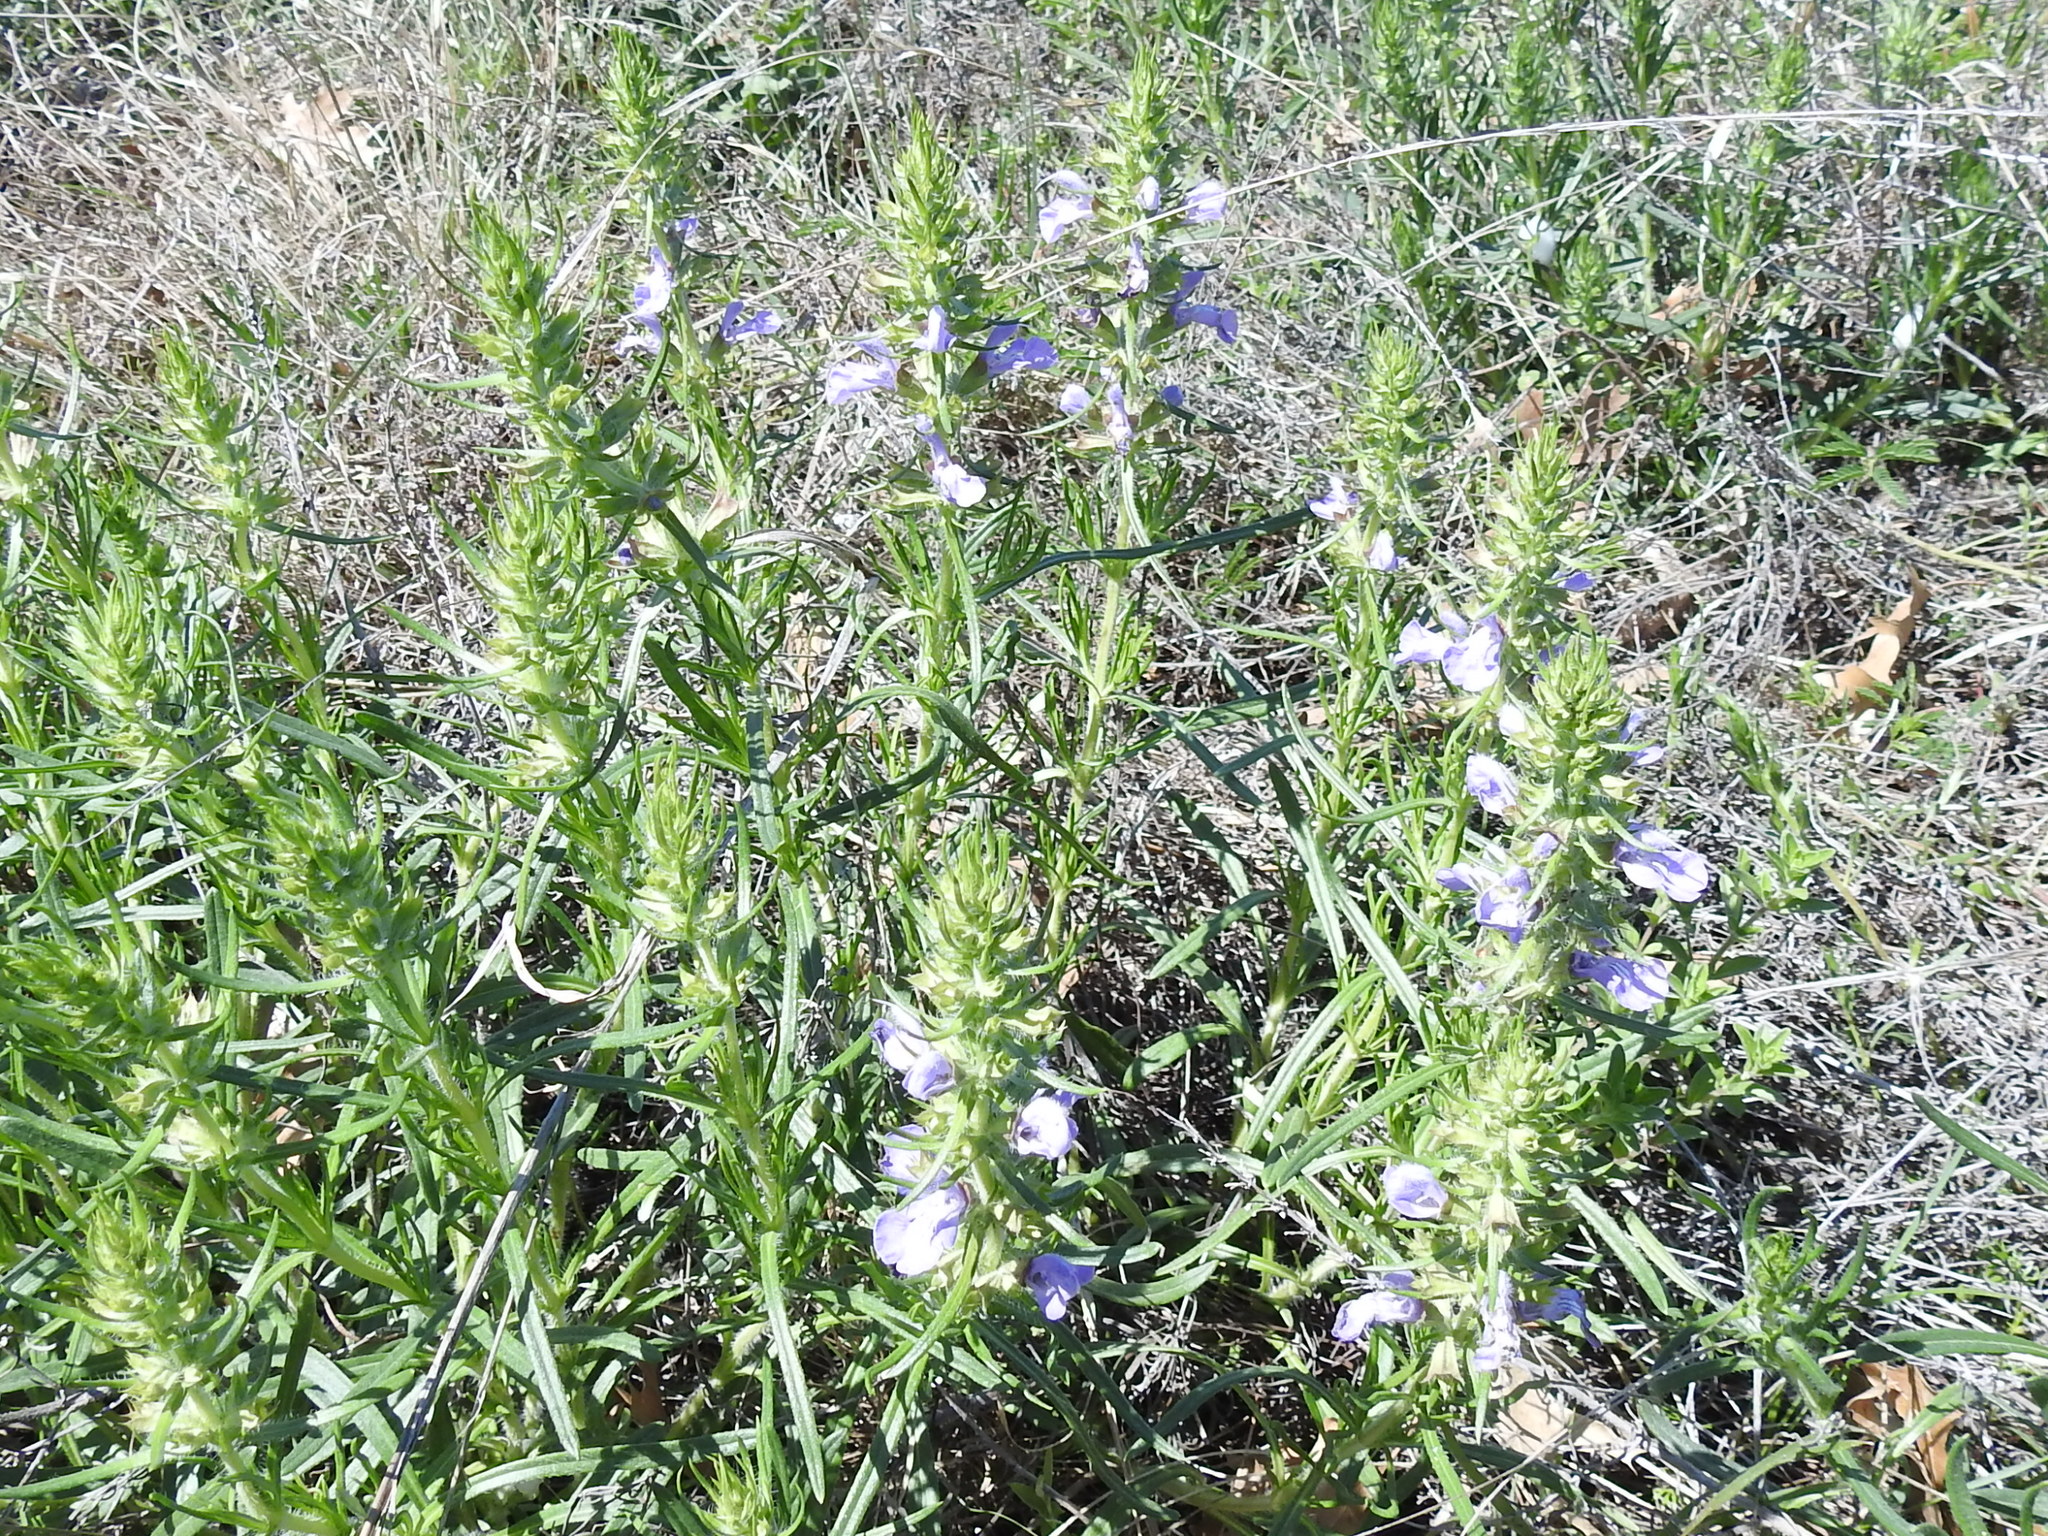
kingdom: Plantae
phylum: Tracheophyta
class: Magnoliopsida
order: Lamiales
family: Lamiaceae
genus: Salvia
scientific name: Salvia texana
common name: Texas sage
